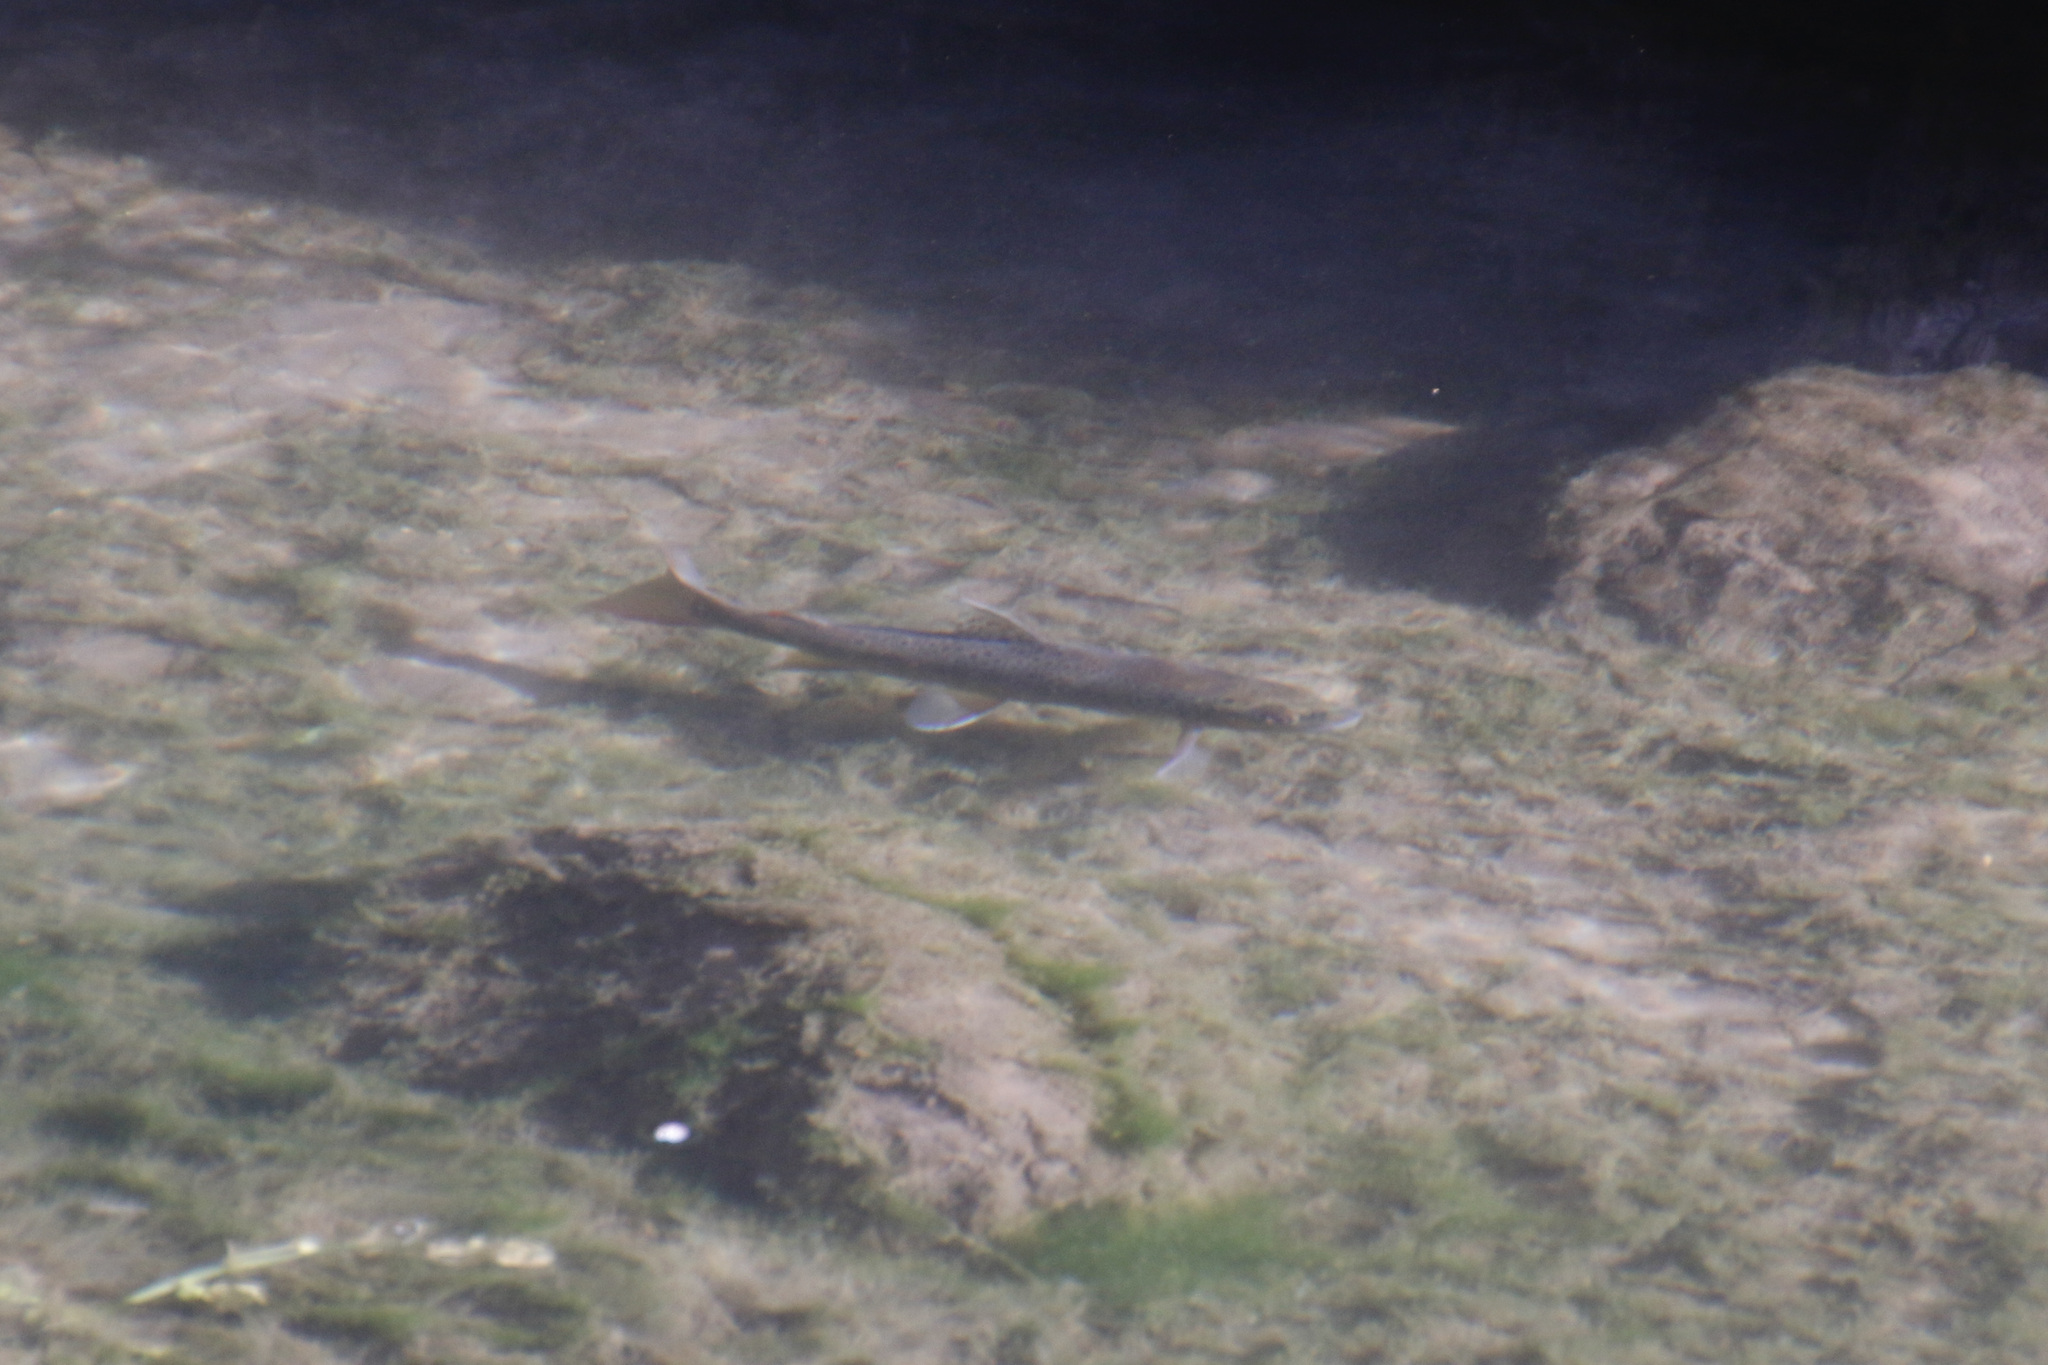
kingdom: Animalia
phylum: Chordata
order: Salmoniformes
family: Salmonidae
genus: Salmo
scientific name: Salmo trutta
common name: Brown trout
